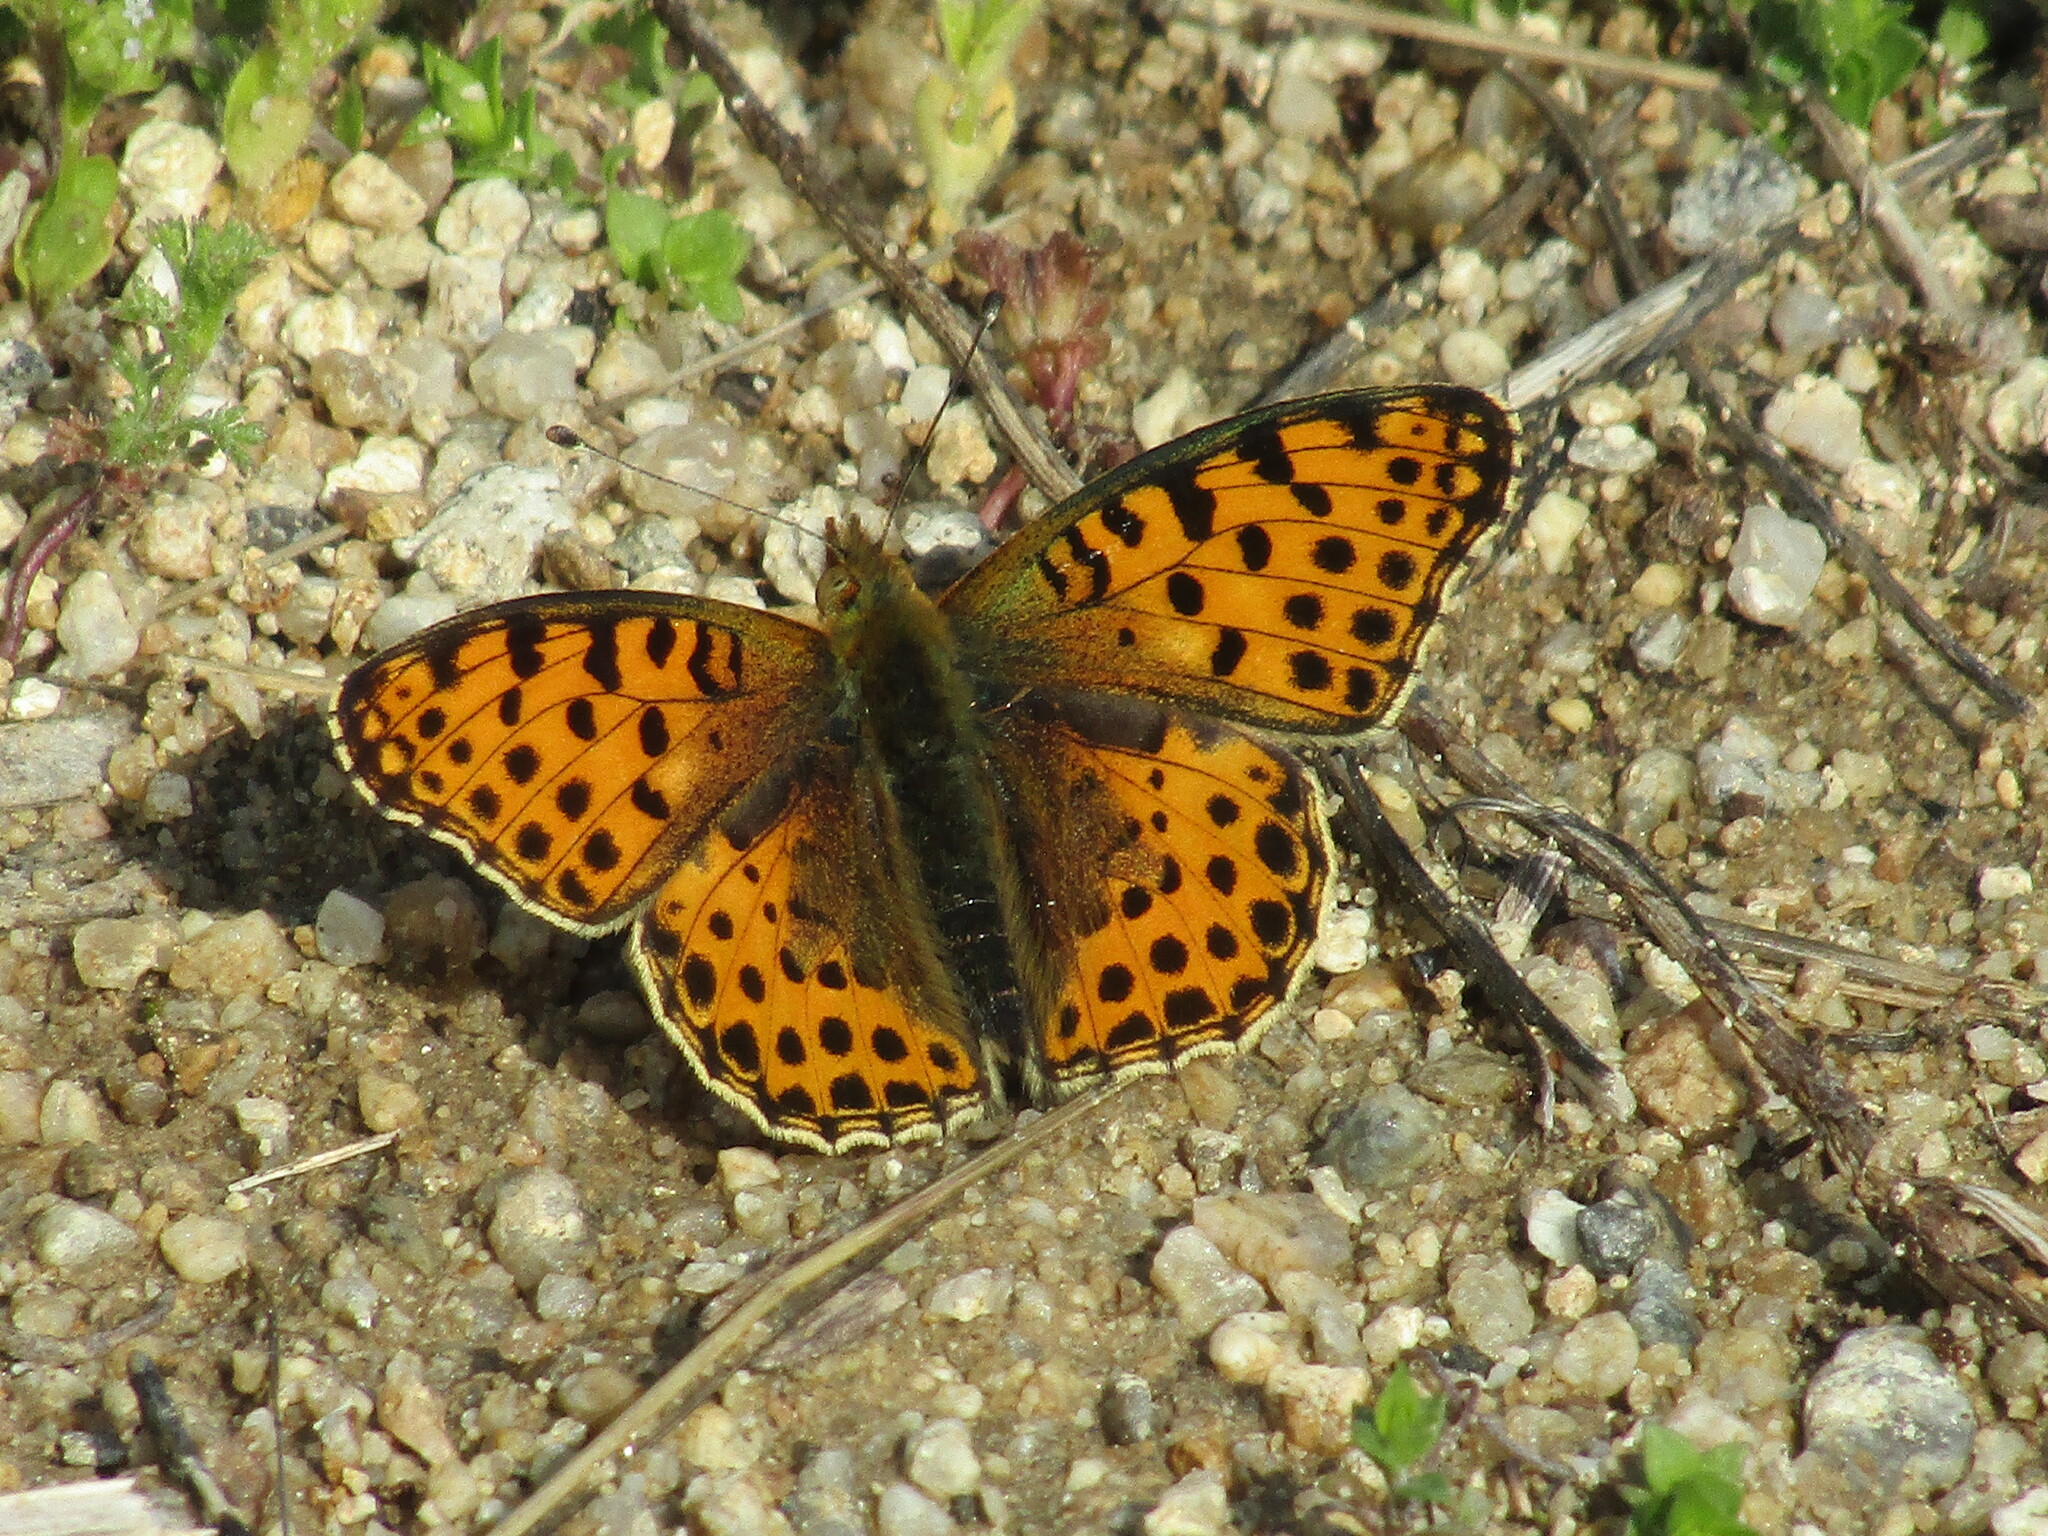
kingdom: Animalia
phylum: Arthropoda
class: Insecta
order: Lepidoptera
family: Nymphalidae
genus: Issoria
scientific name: Issoria lathonia
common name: Queen of spain fritillary
